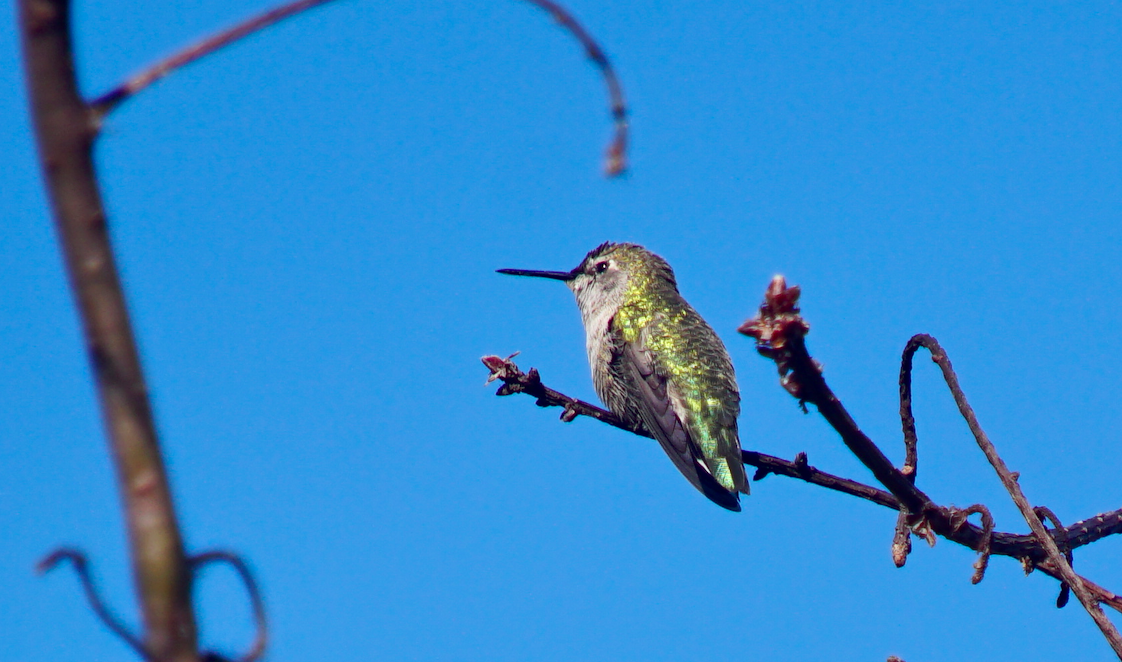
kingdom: Animalia
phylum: Chordata
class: Aves
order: Apodiformes
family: Trochilidae
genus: Calypte
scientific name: Calypte anna
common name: Anna's hummingbird
